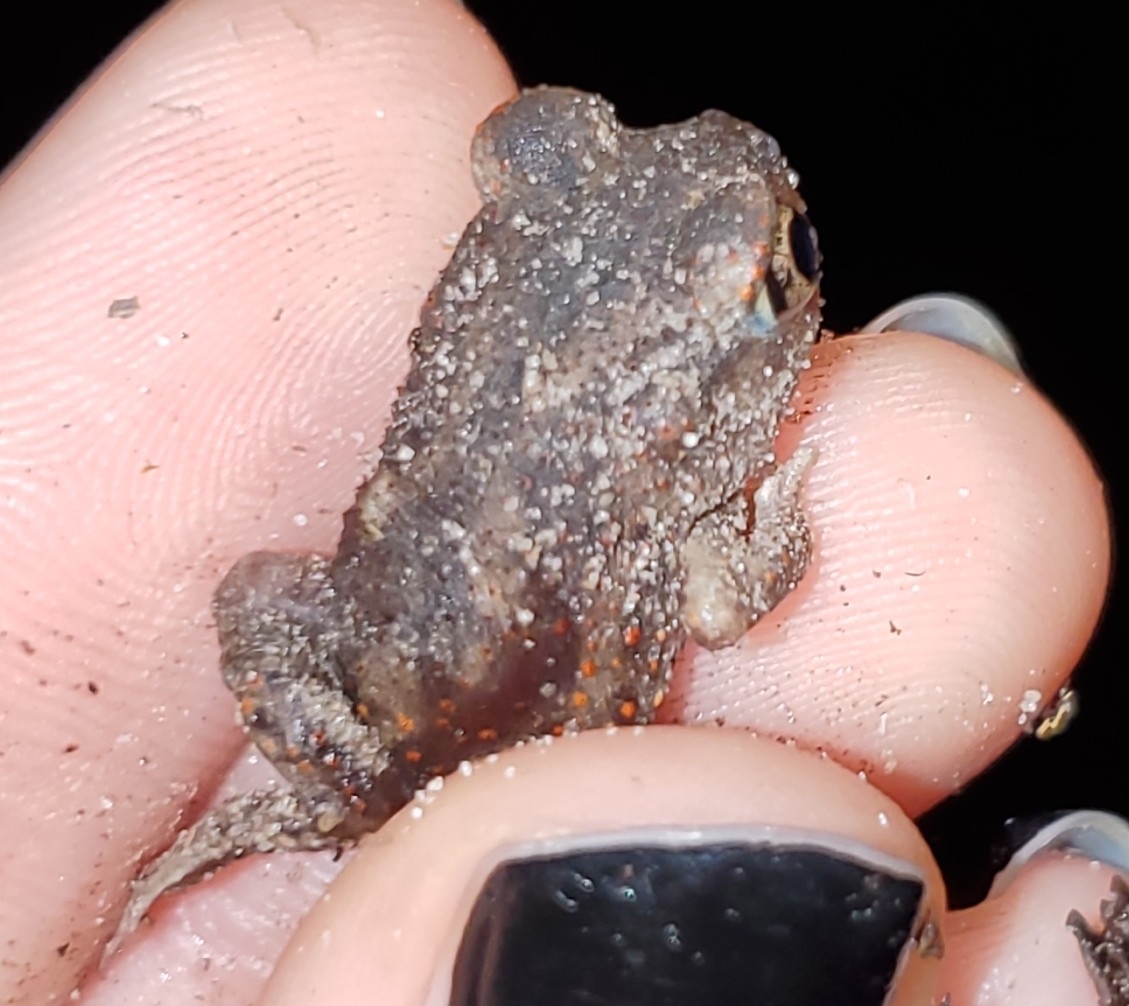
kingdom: Animalia
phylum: Chordata
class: Amphibia
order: Anura
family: Scaphiopodidae
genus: Scaphiopus
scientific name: Scaphiopus holbrookii
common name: Eastern spadefoot toad
